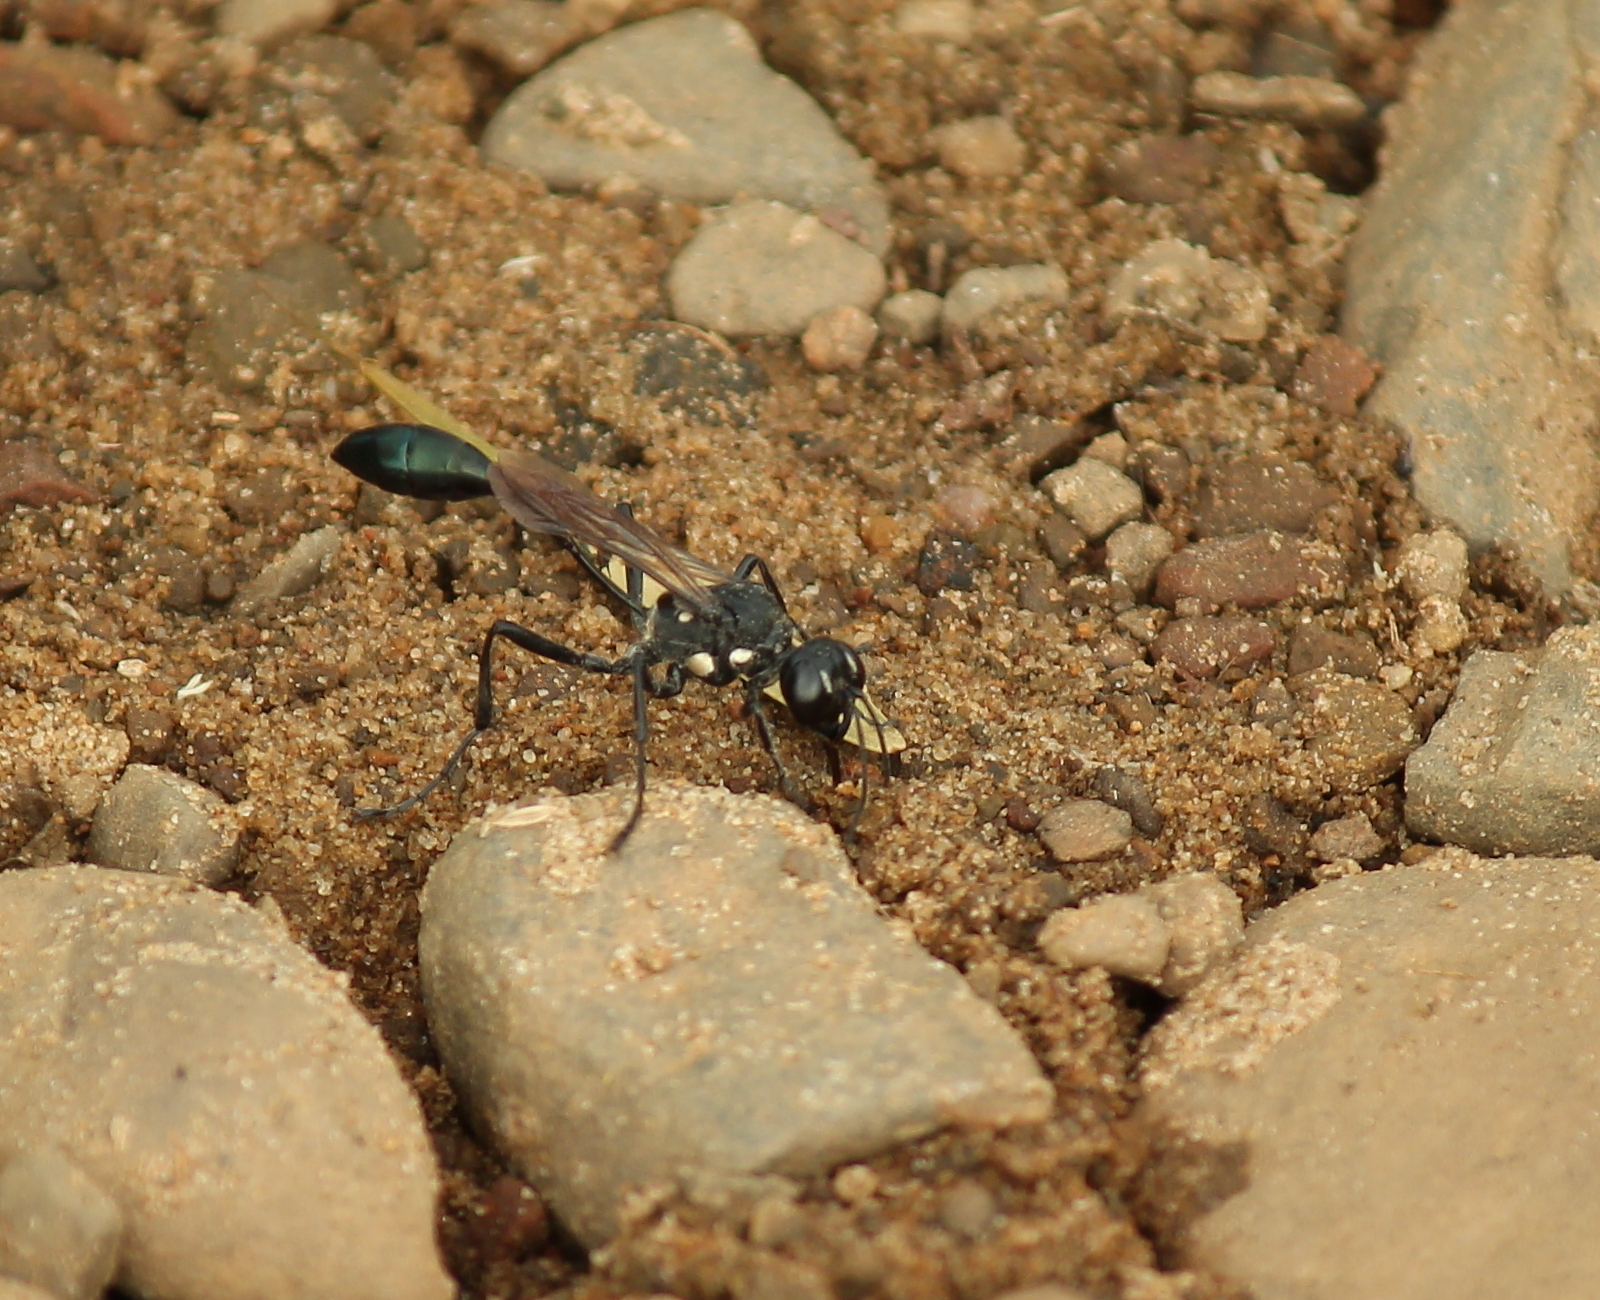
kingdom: Animalia
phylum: Arthropoda
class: Insecta
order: Hymenoptera
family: Sphecidae
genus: Eremnophila
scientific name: Eremnophila aureonotata
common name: Gold-marked thread-waisted wasp
